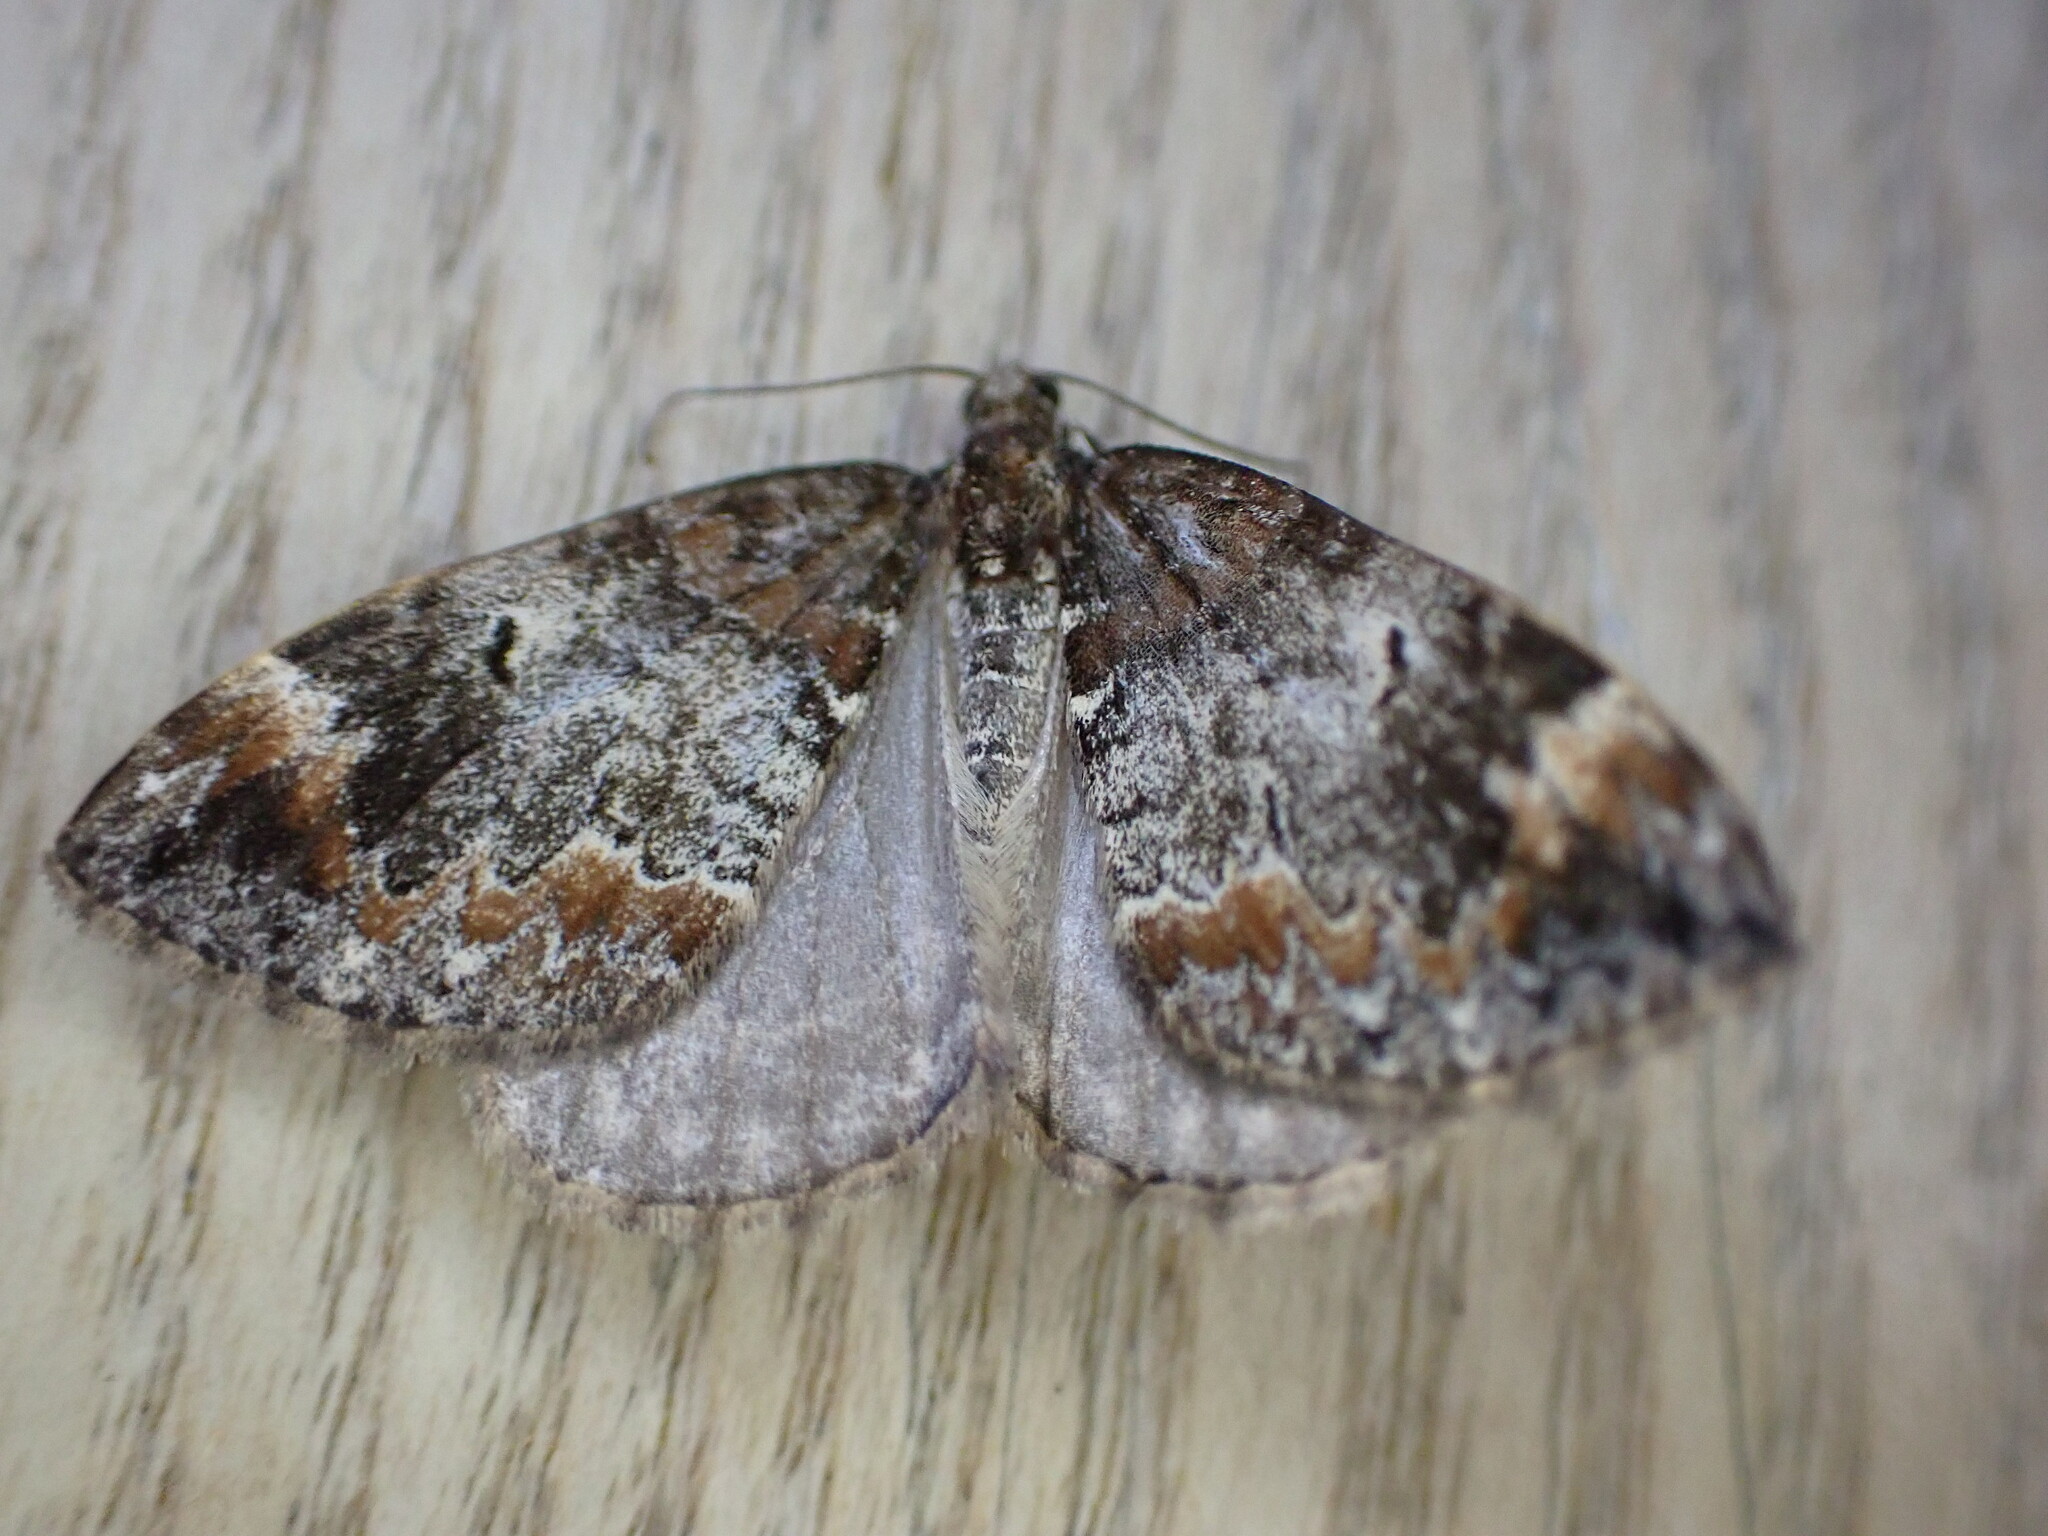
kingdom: Animalia
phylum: Arthropoda
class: Insecta
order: Lepidoptera
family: Geometridae
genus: Dysstroma
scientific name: Dysstroma truncata
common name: Common marbled carpet
